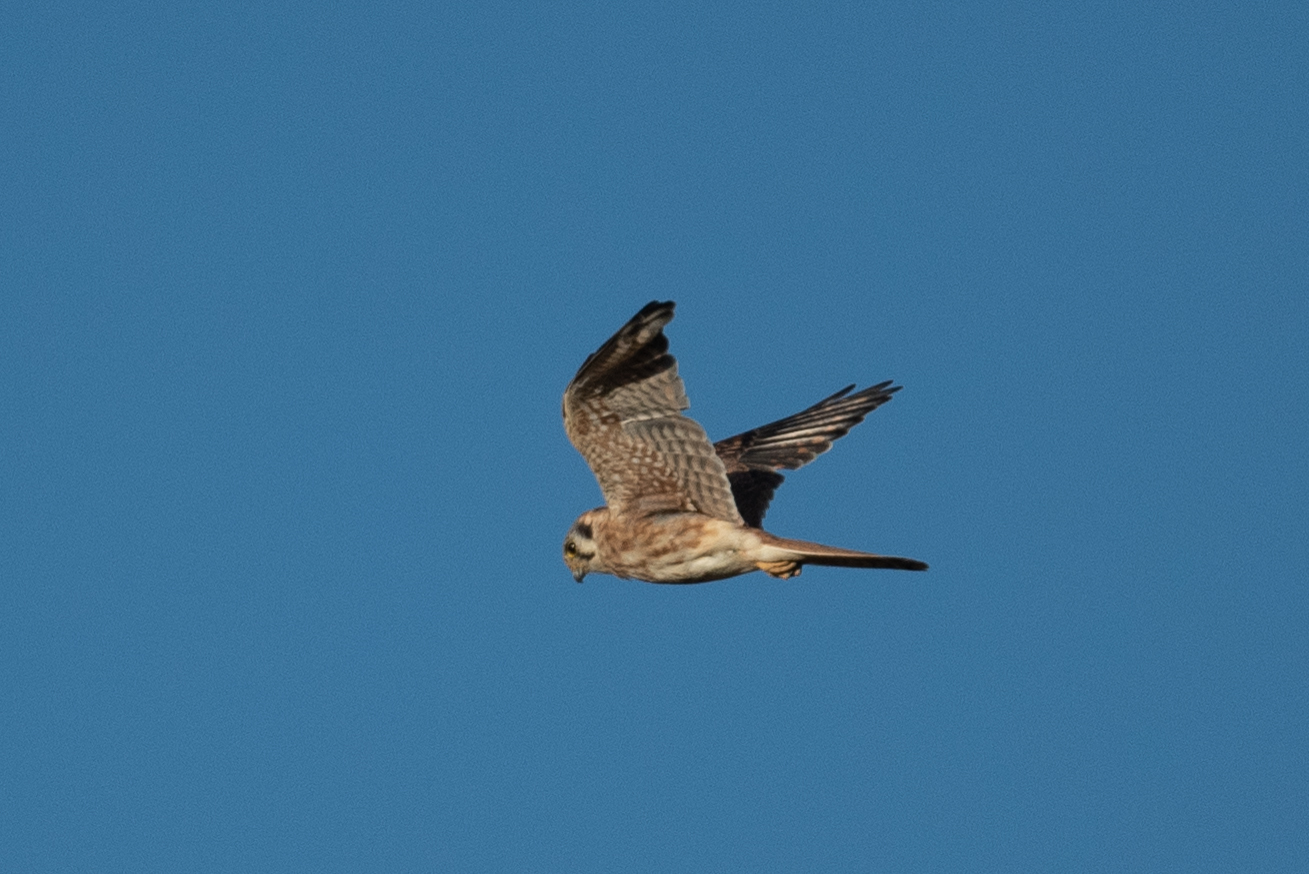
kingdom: Animalia
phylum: Chordata
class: Aves
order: Falconiformes
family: Falconidae
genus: Falco
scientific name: Falco sparverius
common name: American kestrel
